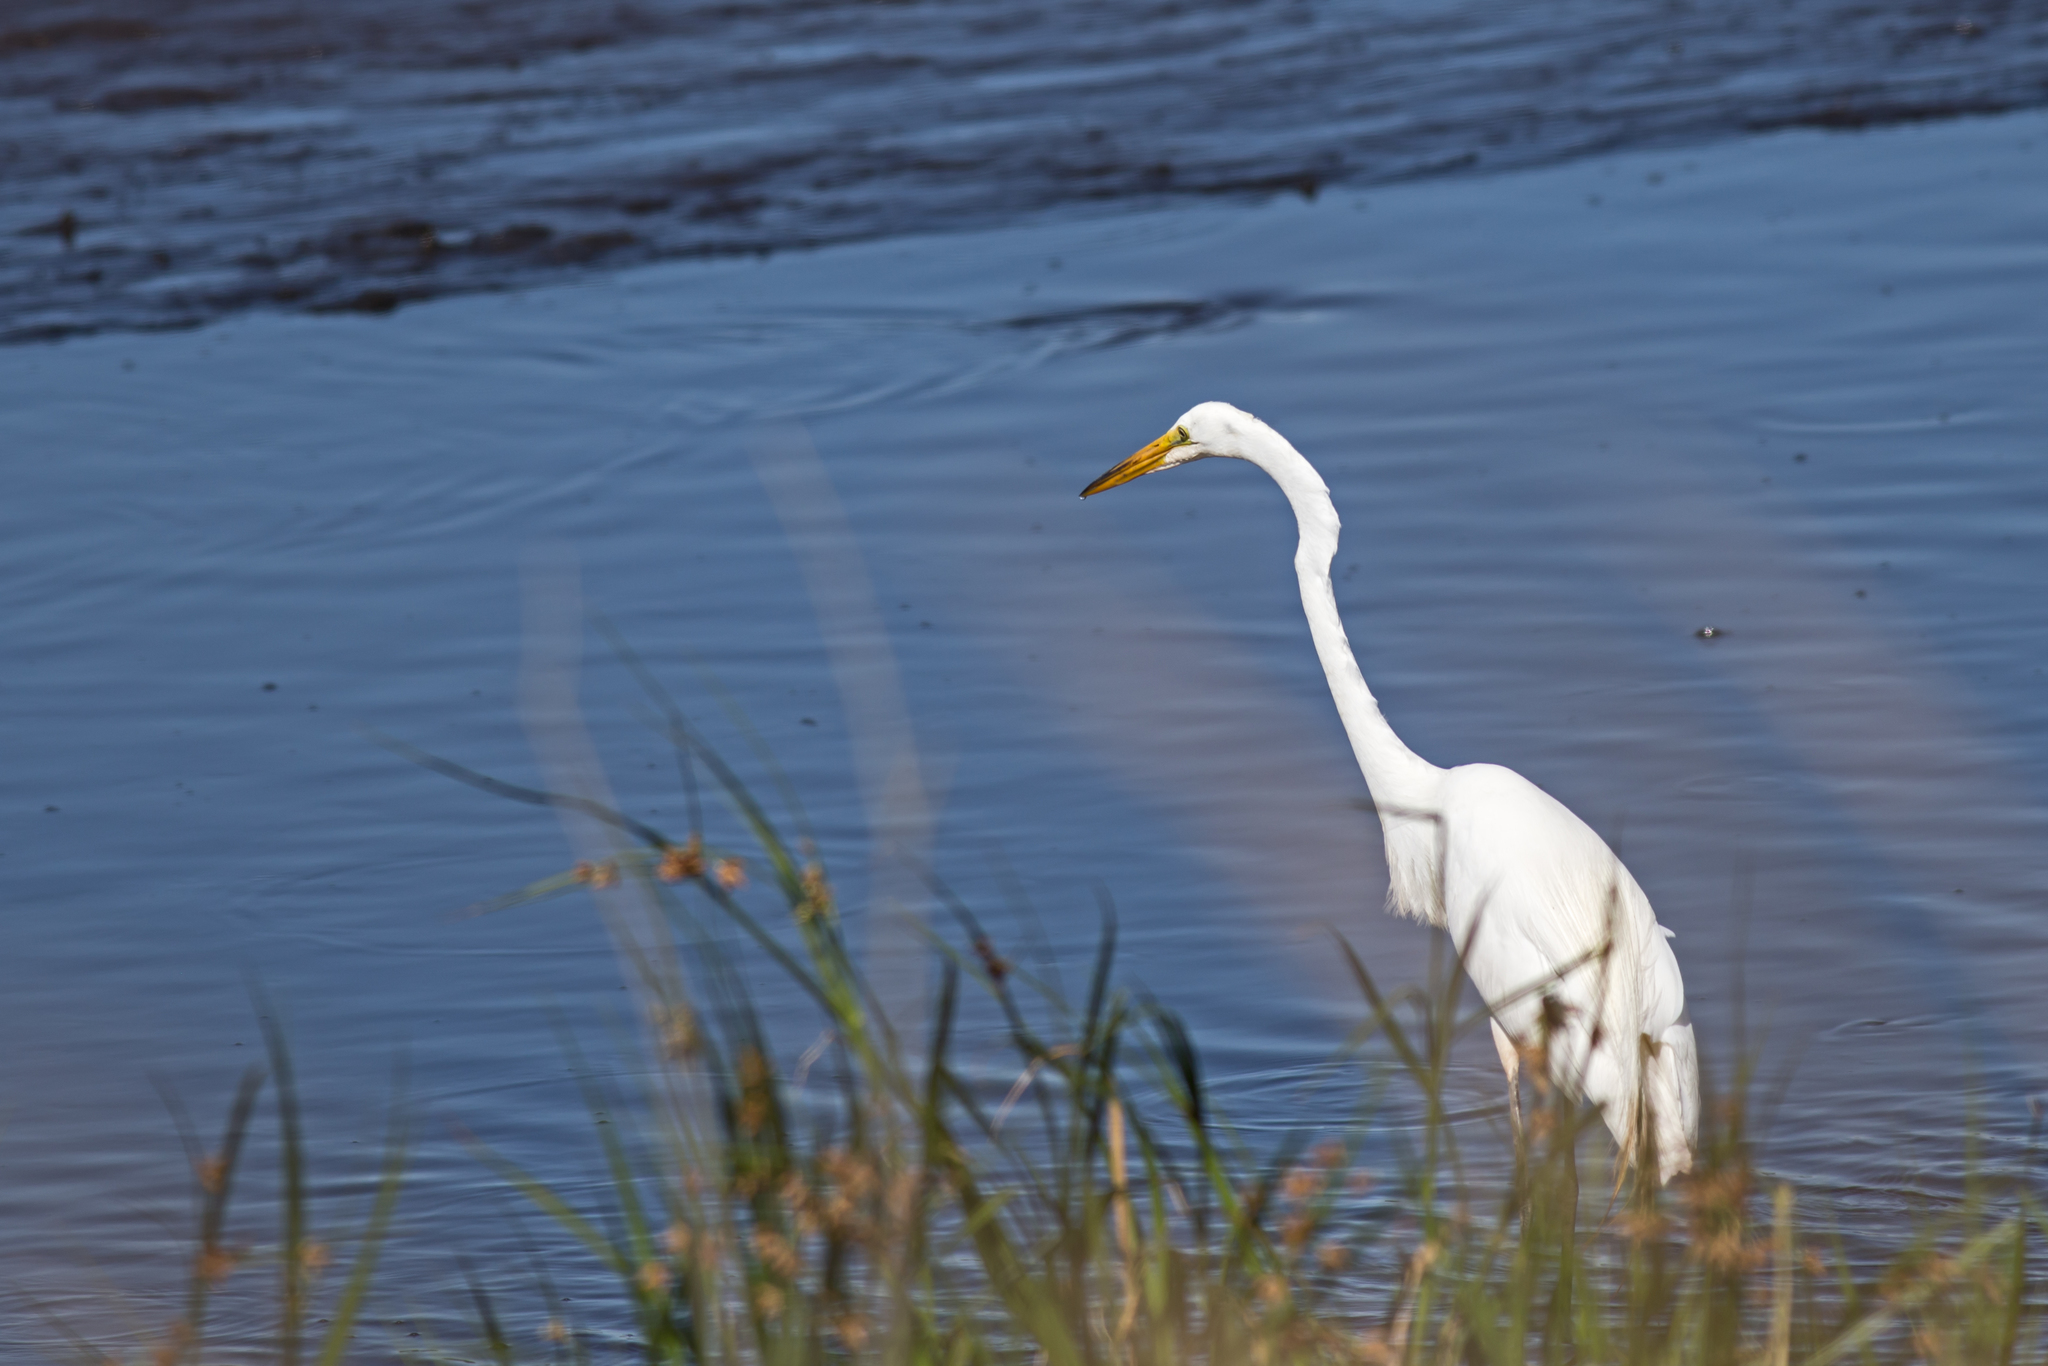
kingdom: Animalia
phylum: Chordata
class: Aves
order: Pelecaniformes
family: Ardeidae
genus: Ardea
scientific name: Ardea alba
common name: Great egret
